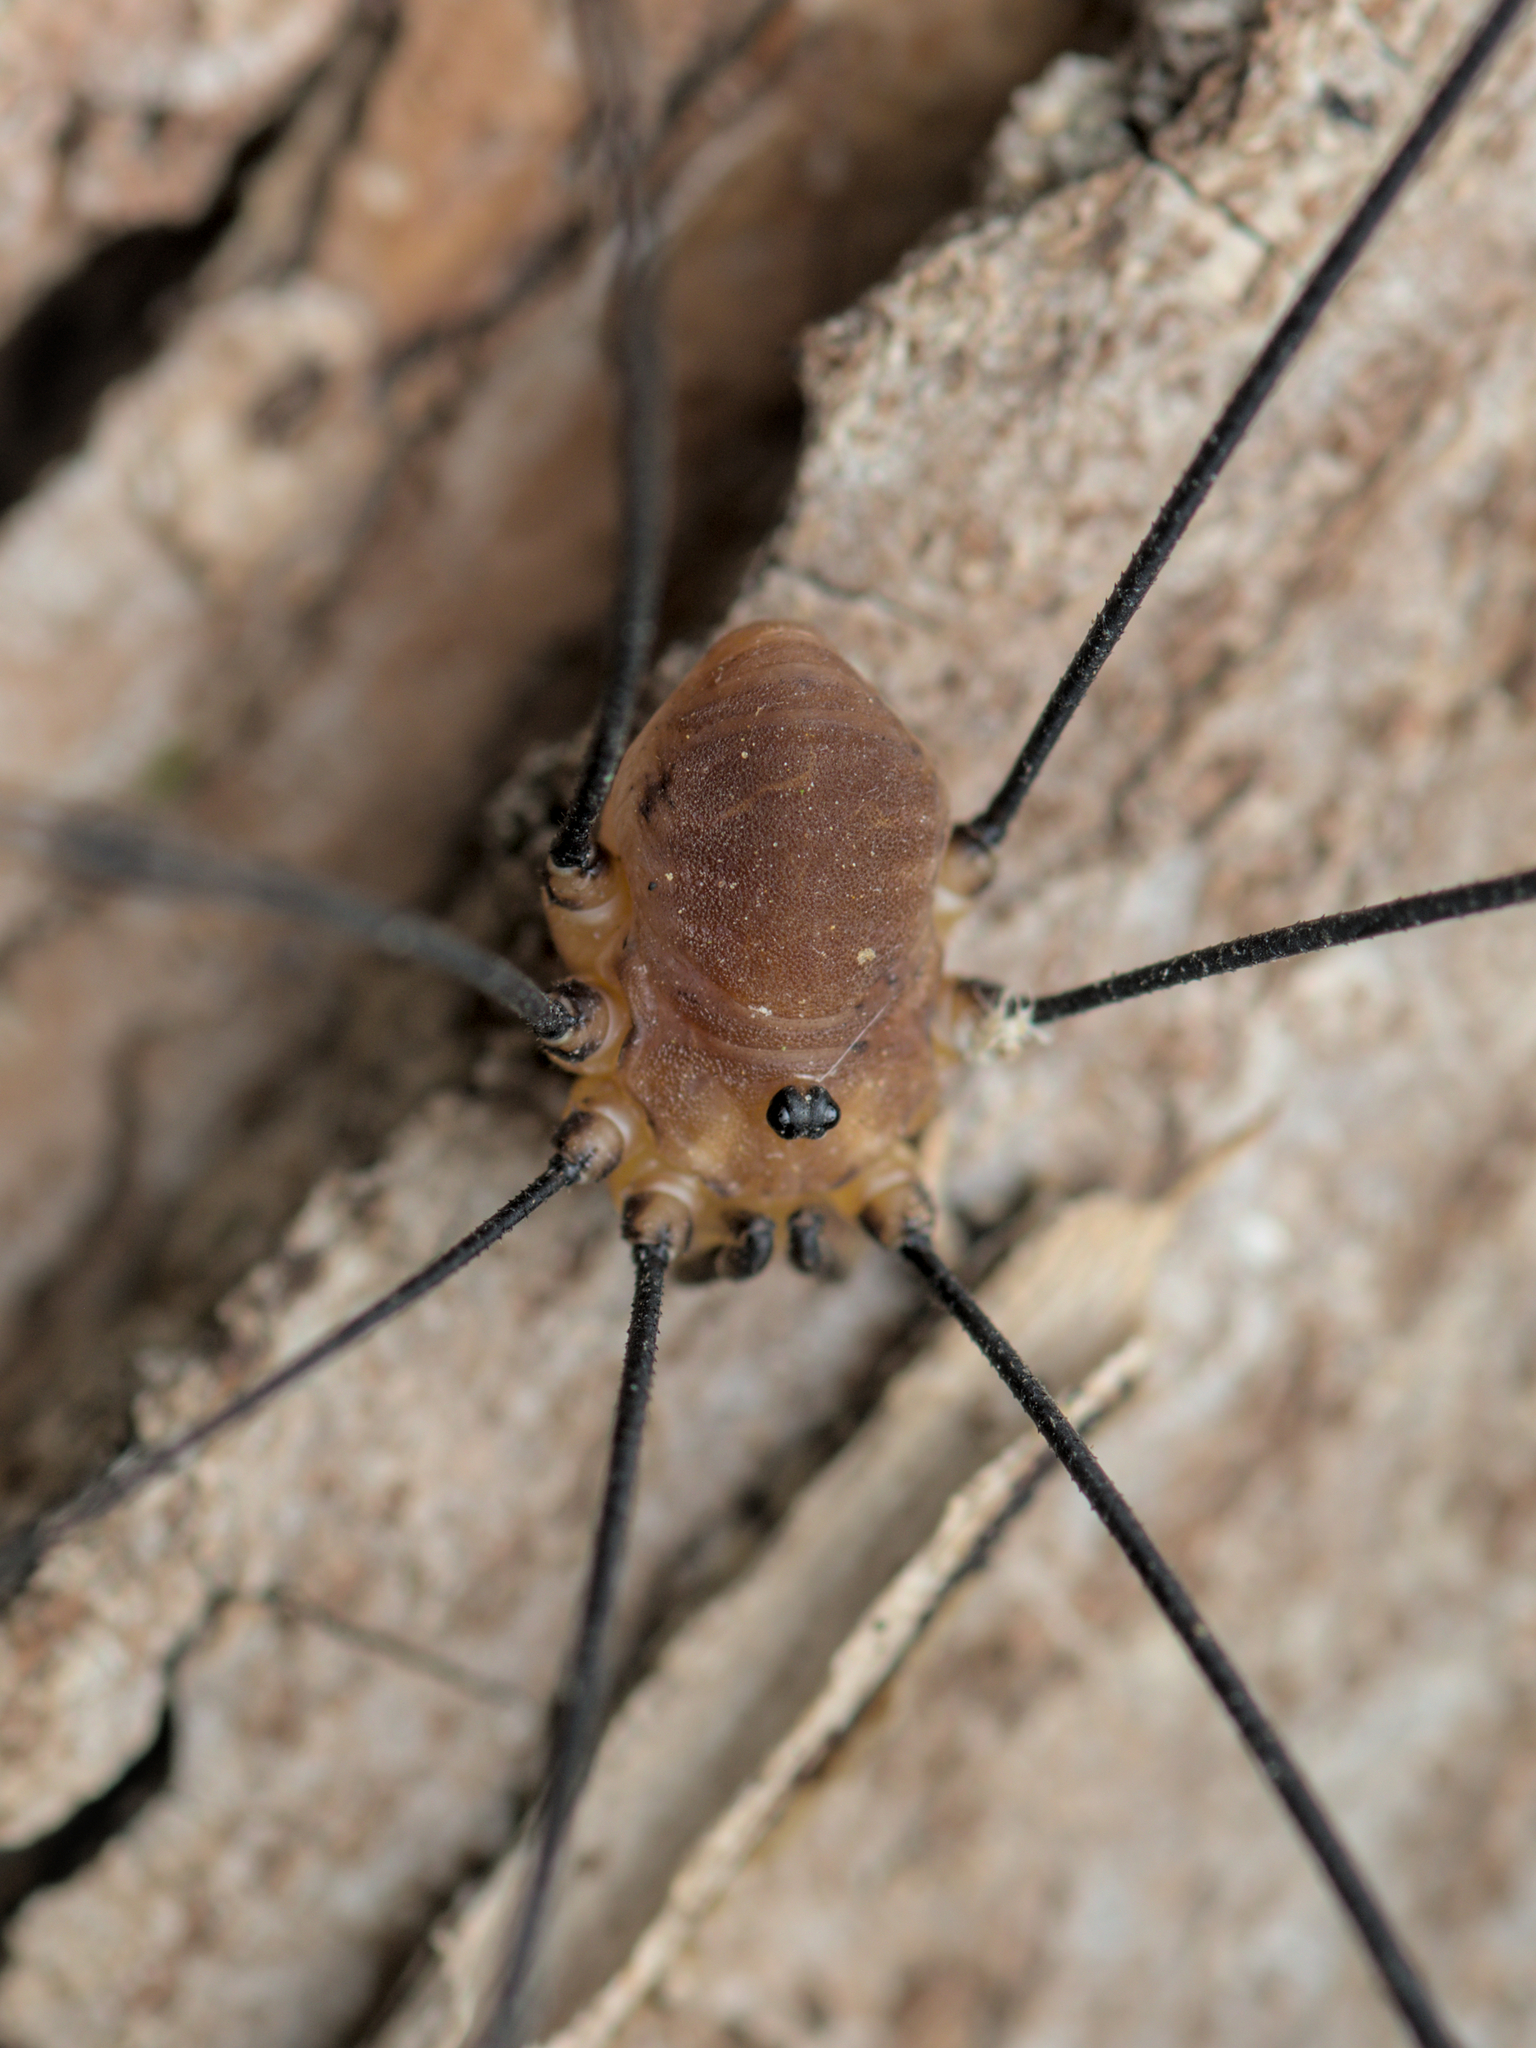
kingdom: Animalia
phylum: Arthropoda
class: Arachnida
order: Opiliones
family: Sclerosomatidae
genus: Leiobunum
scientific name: Leiobunum rotundum
